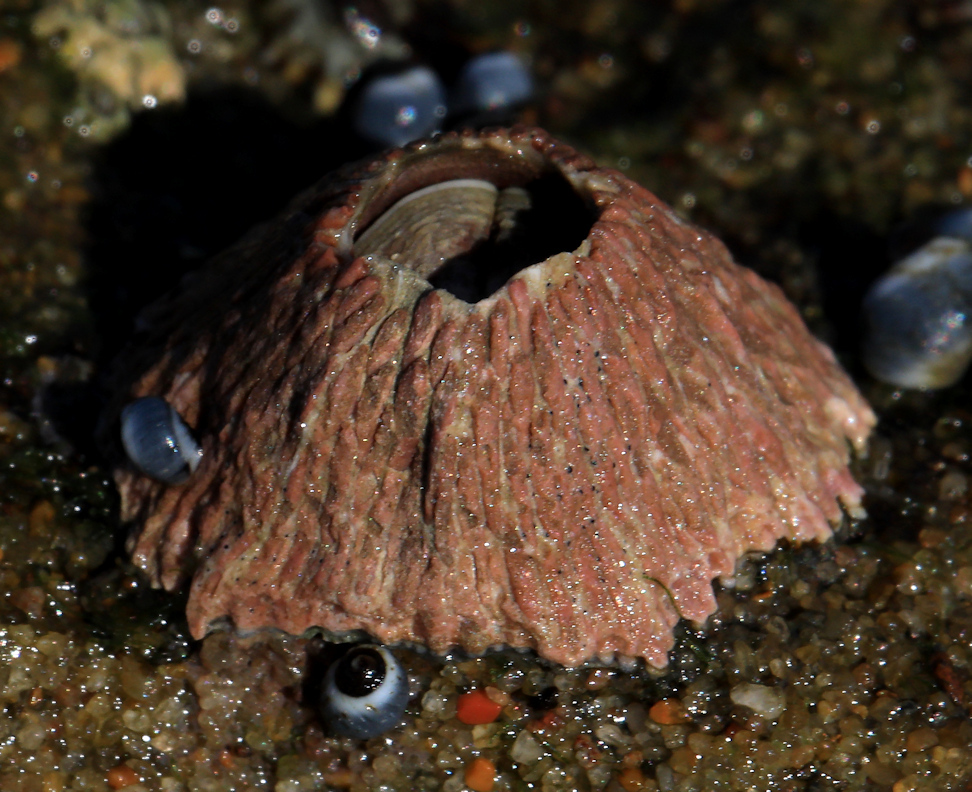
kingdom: Animalia
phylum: Arthropoda
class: Maxillopoda
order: Sessilia
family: Tetraclitidae
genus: Tetraclita
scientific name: Tetraclita rufotincta
